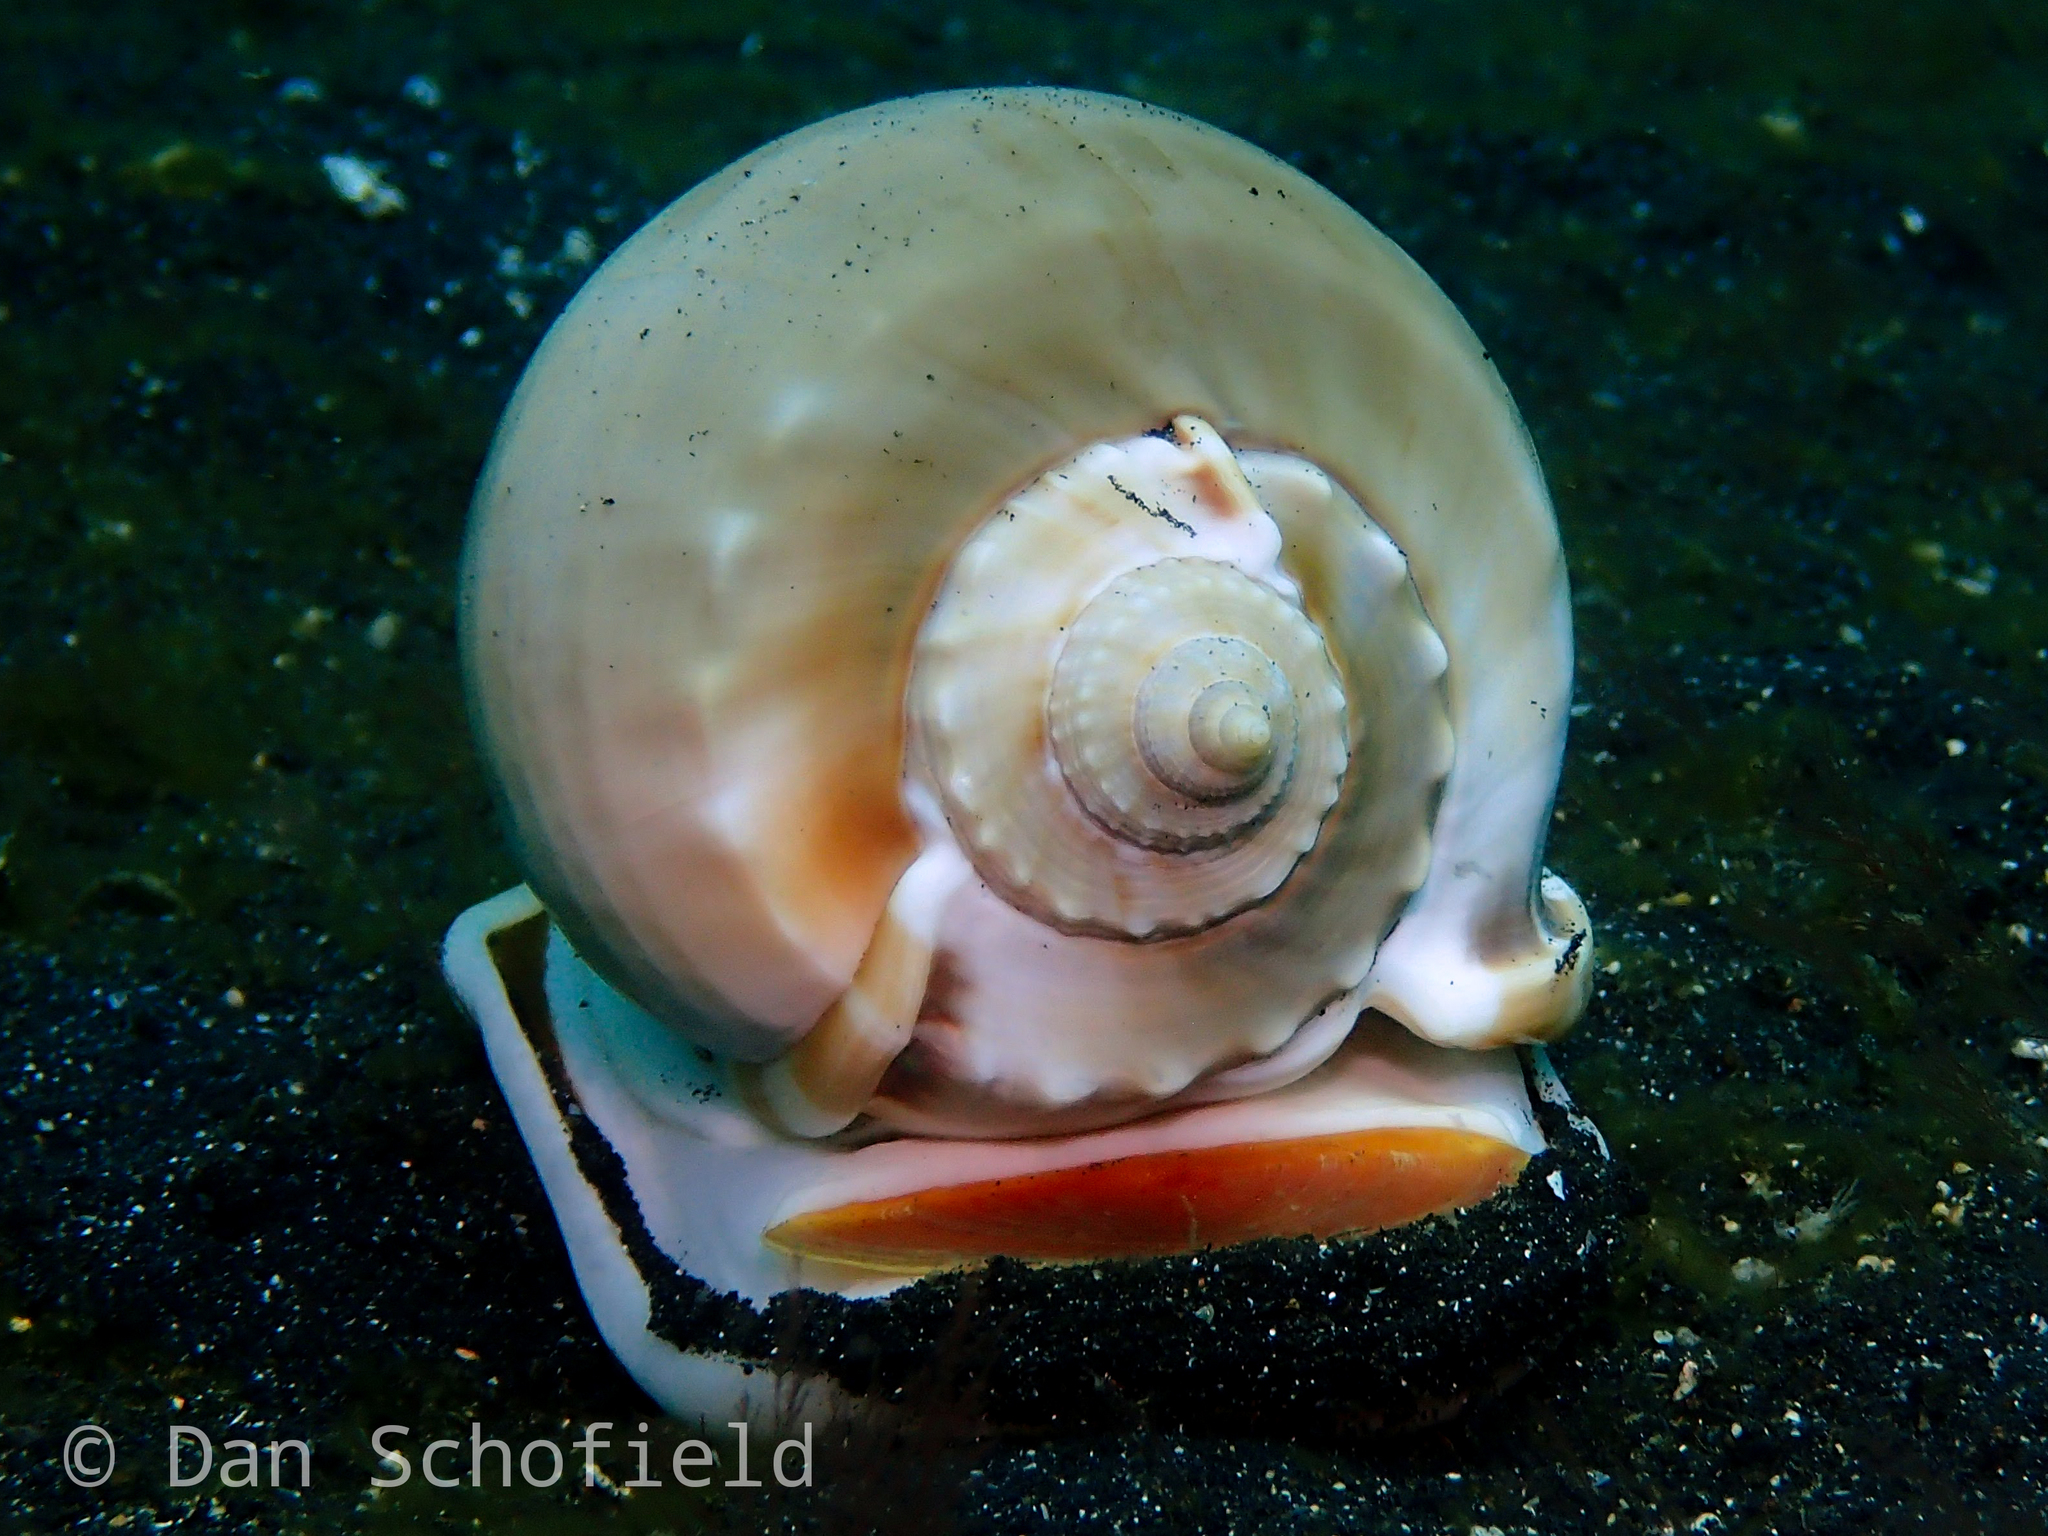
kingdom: Animalia
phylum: Mollusca
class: Gastropoda
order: Littorinimorpha
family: Cassidae
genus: Phalium
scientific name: Phalium glaucum
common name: Grey bonnet
